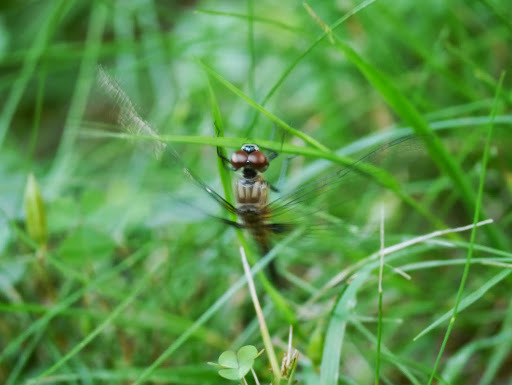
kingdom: Animalia
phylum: Arthropoda
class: Insecta
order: Odonata
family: Libellulidae
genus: Pachydiplax
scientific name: Pachydiplax longipennis
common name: Blue dasher
